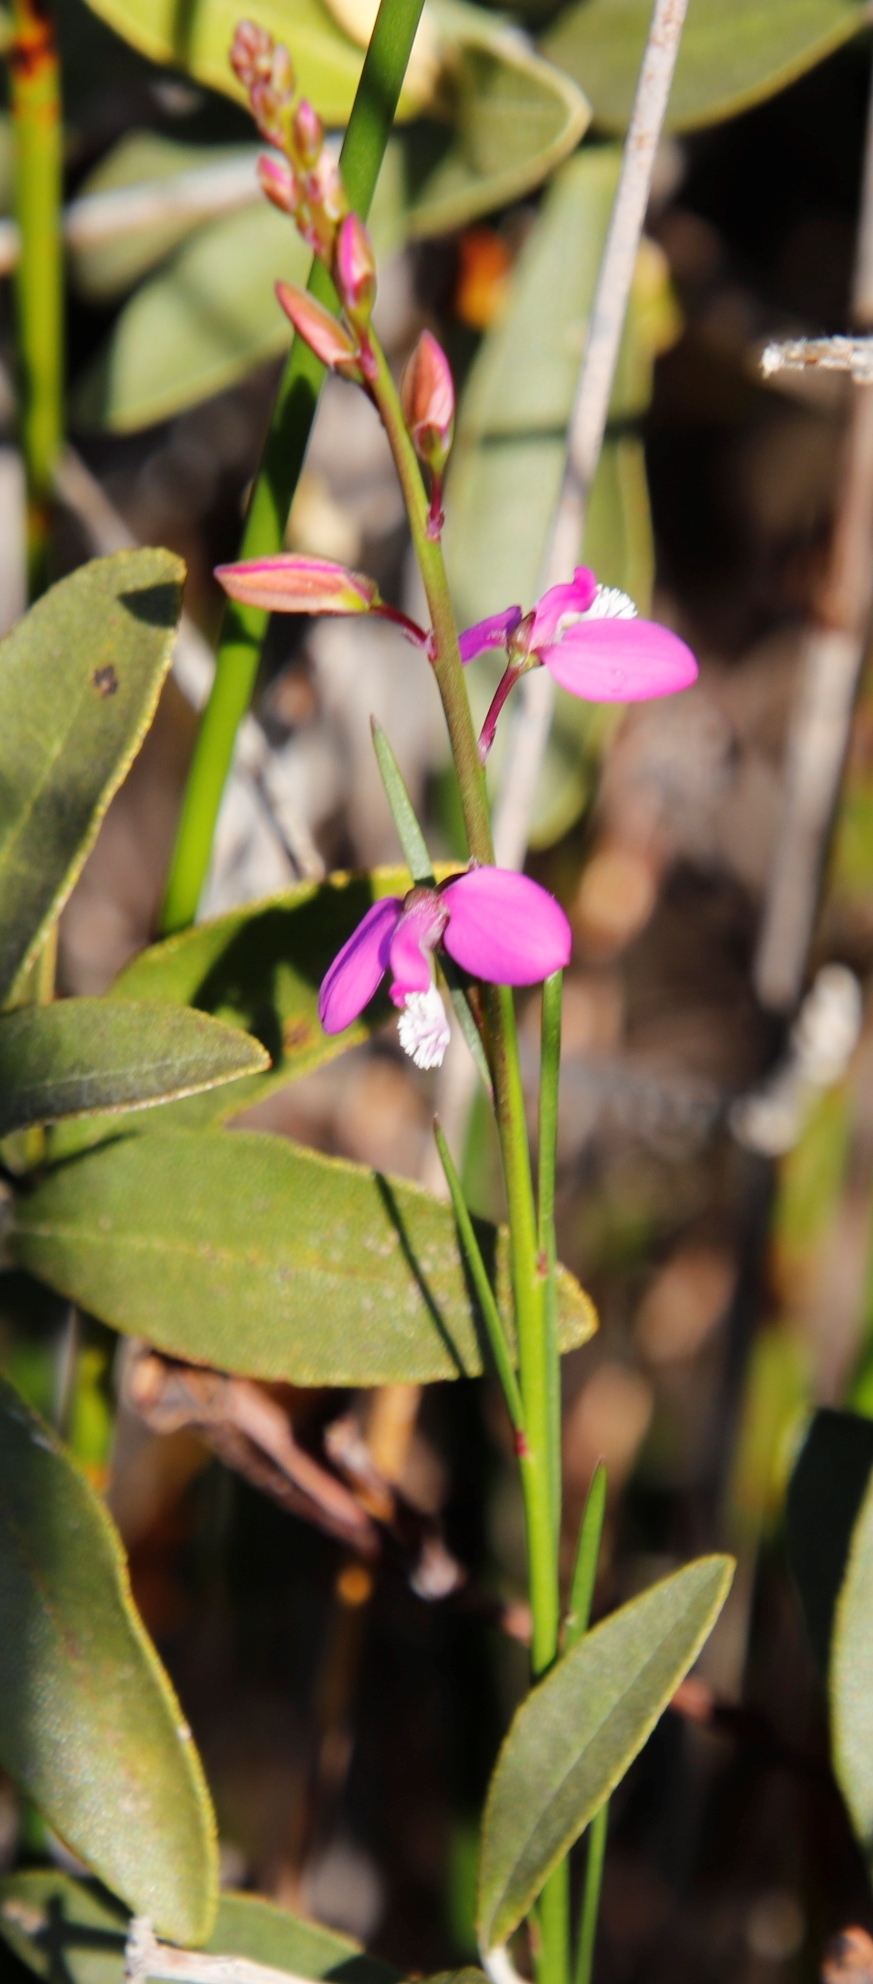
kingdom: Plantae
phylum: Tracheophyta
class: Magnoliopsida
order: Fabales
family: Polygalaceae
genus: Polygala
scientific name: Polygala garcini
